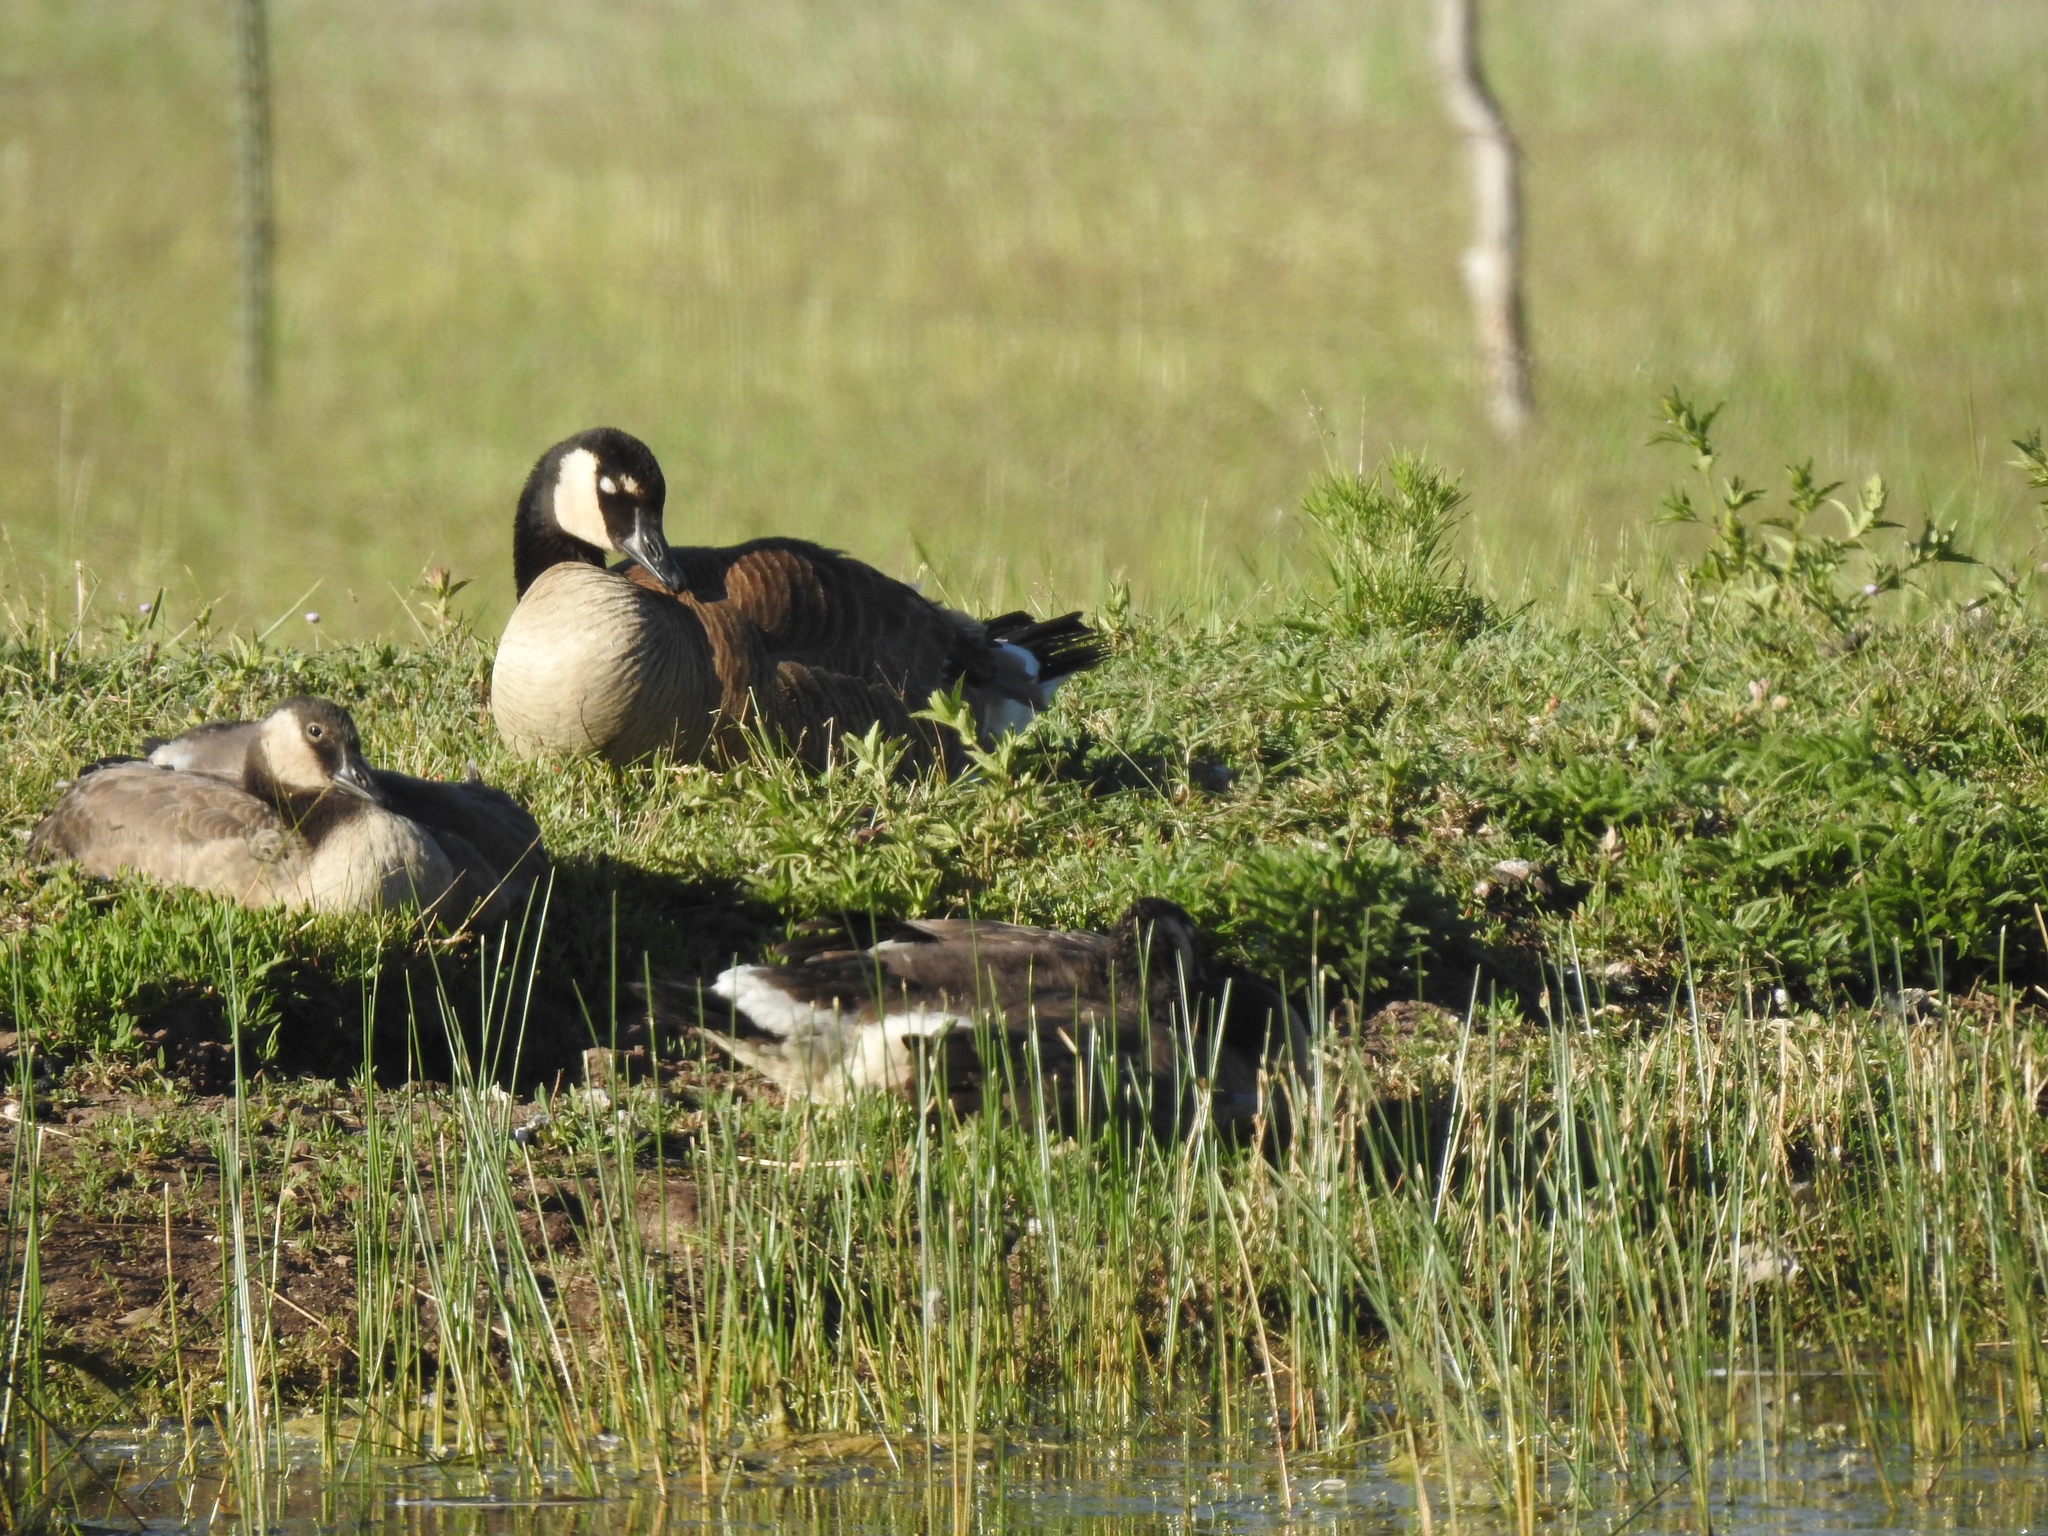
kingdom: Animalia
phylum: Chordata
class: Aves
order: Anseriformes
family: Anatidae
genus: Branta
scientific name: Branta canadensis
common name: Canada goose
